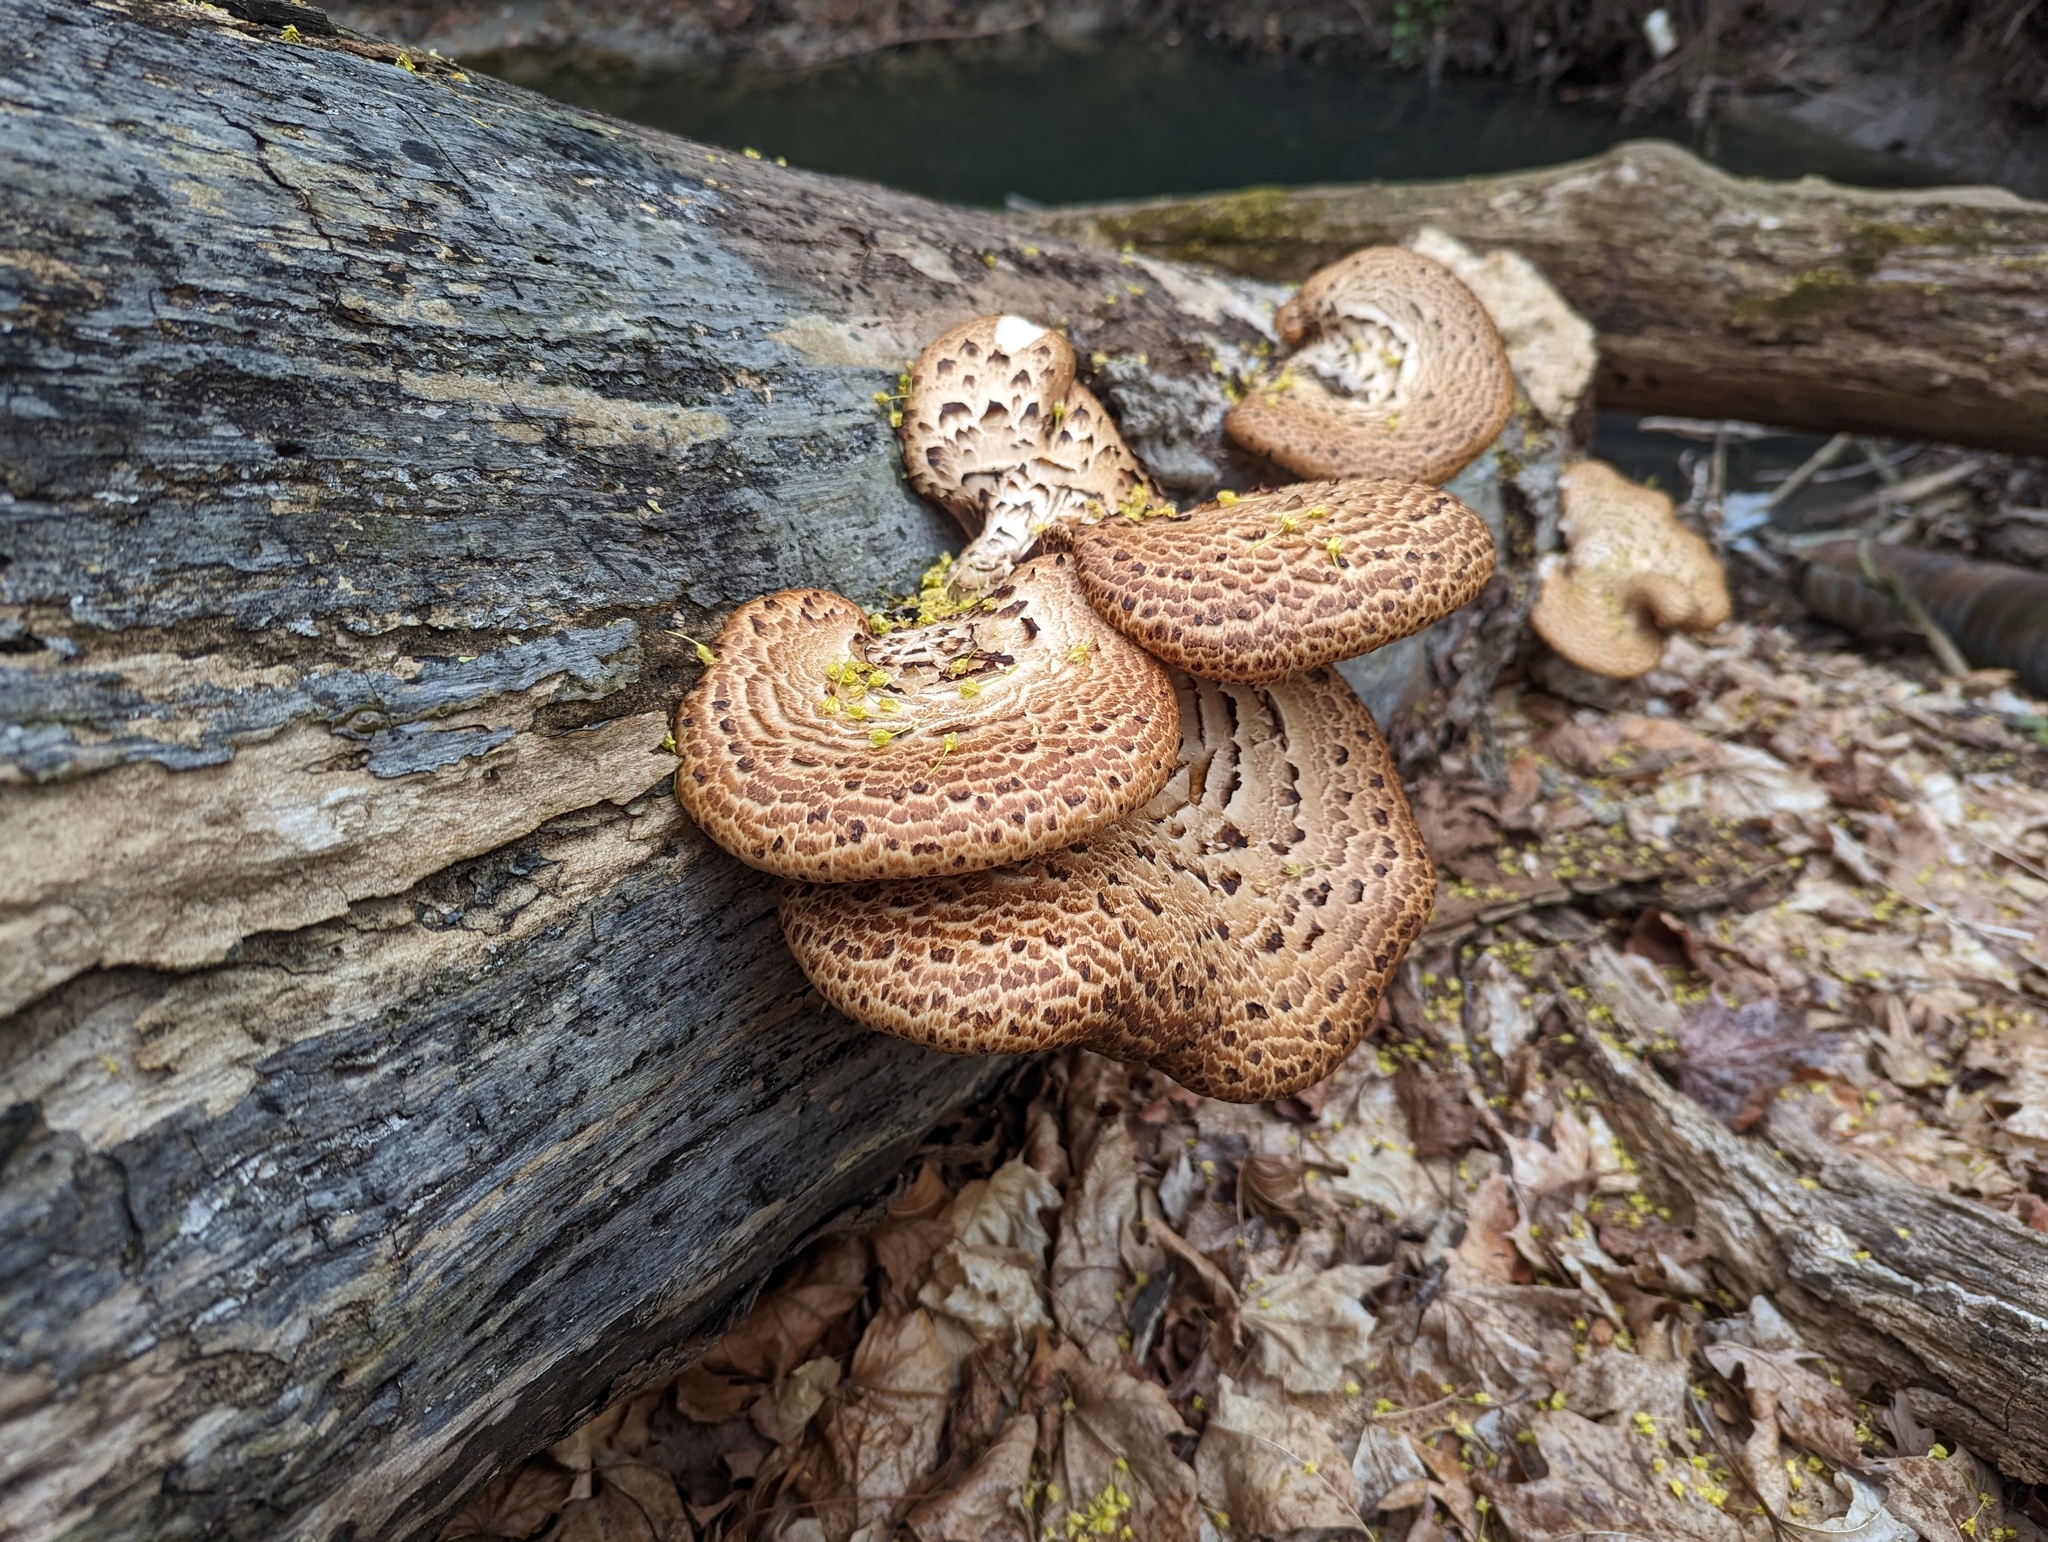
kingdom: Fungi
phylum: Basidiomycota
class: Agaricomycetes
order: Polyporales
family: Polyporaceae
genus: Cerioporus
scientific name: Cerioporus squamosus
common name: Dryad's saddle
